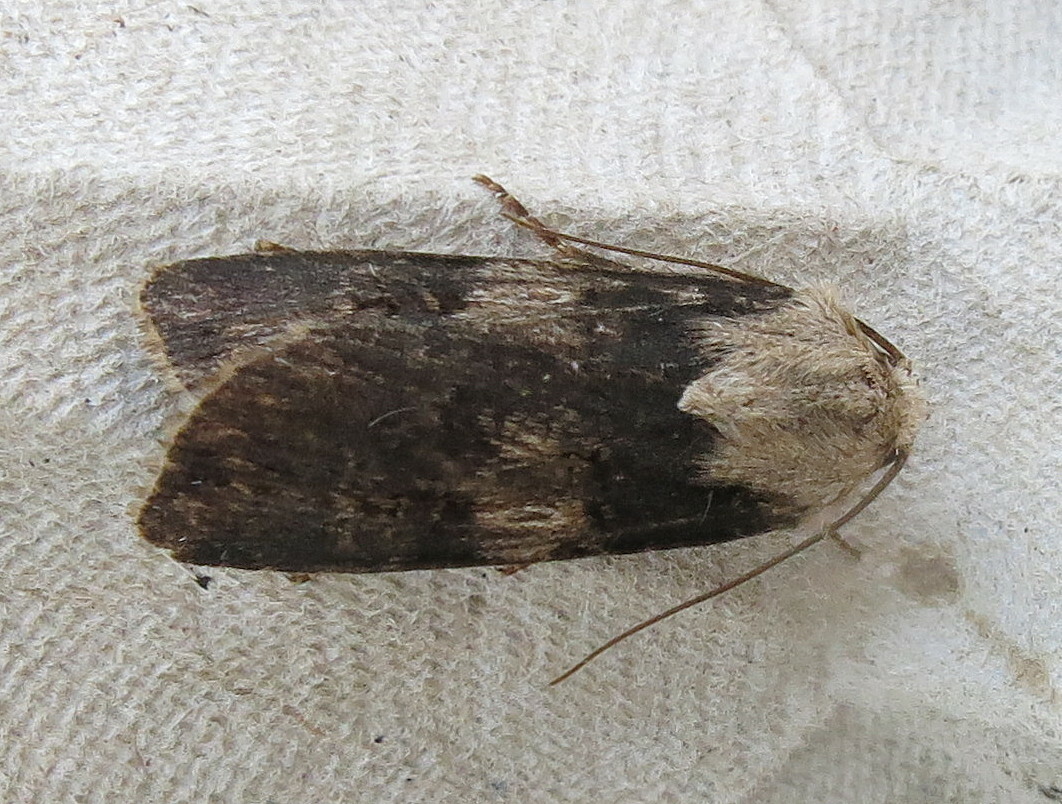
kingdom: Animalia
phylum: Arthropoda
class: Insecta
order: Lepidoptera
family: Noctuidae
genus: Agrotis
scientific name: Agrotis puta
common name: Shuttle-shaped dart
